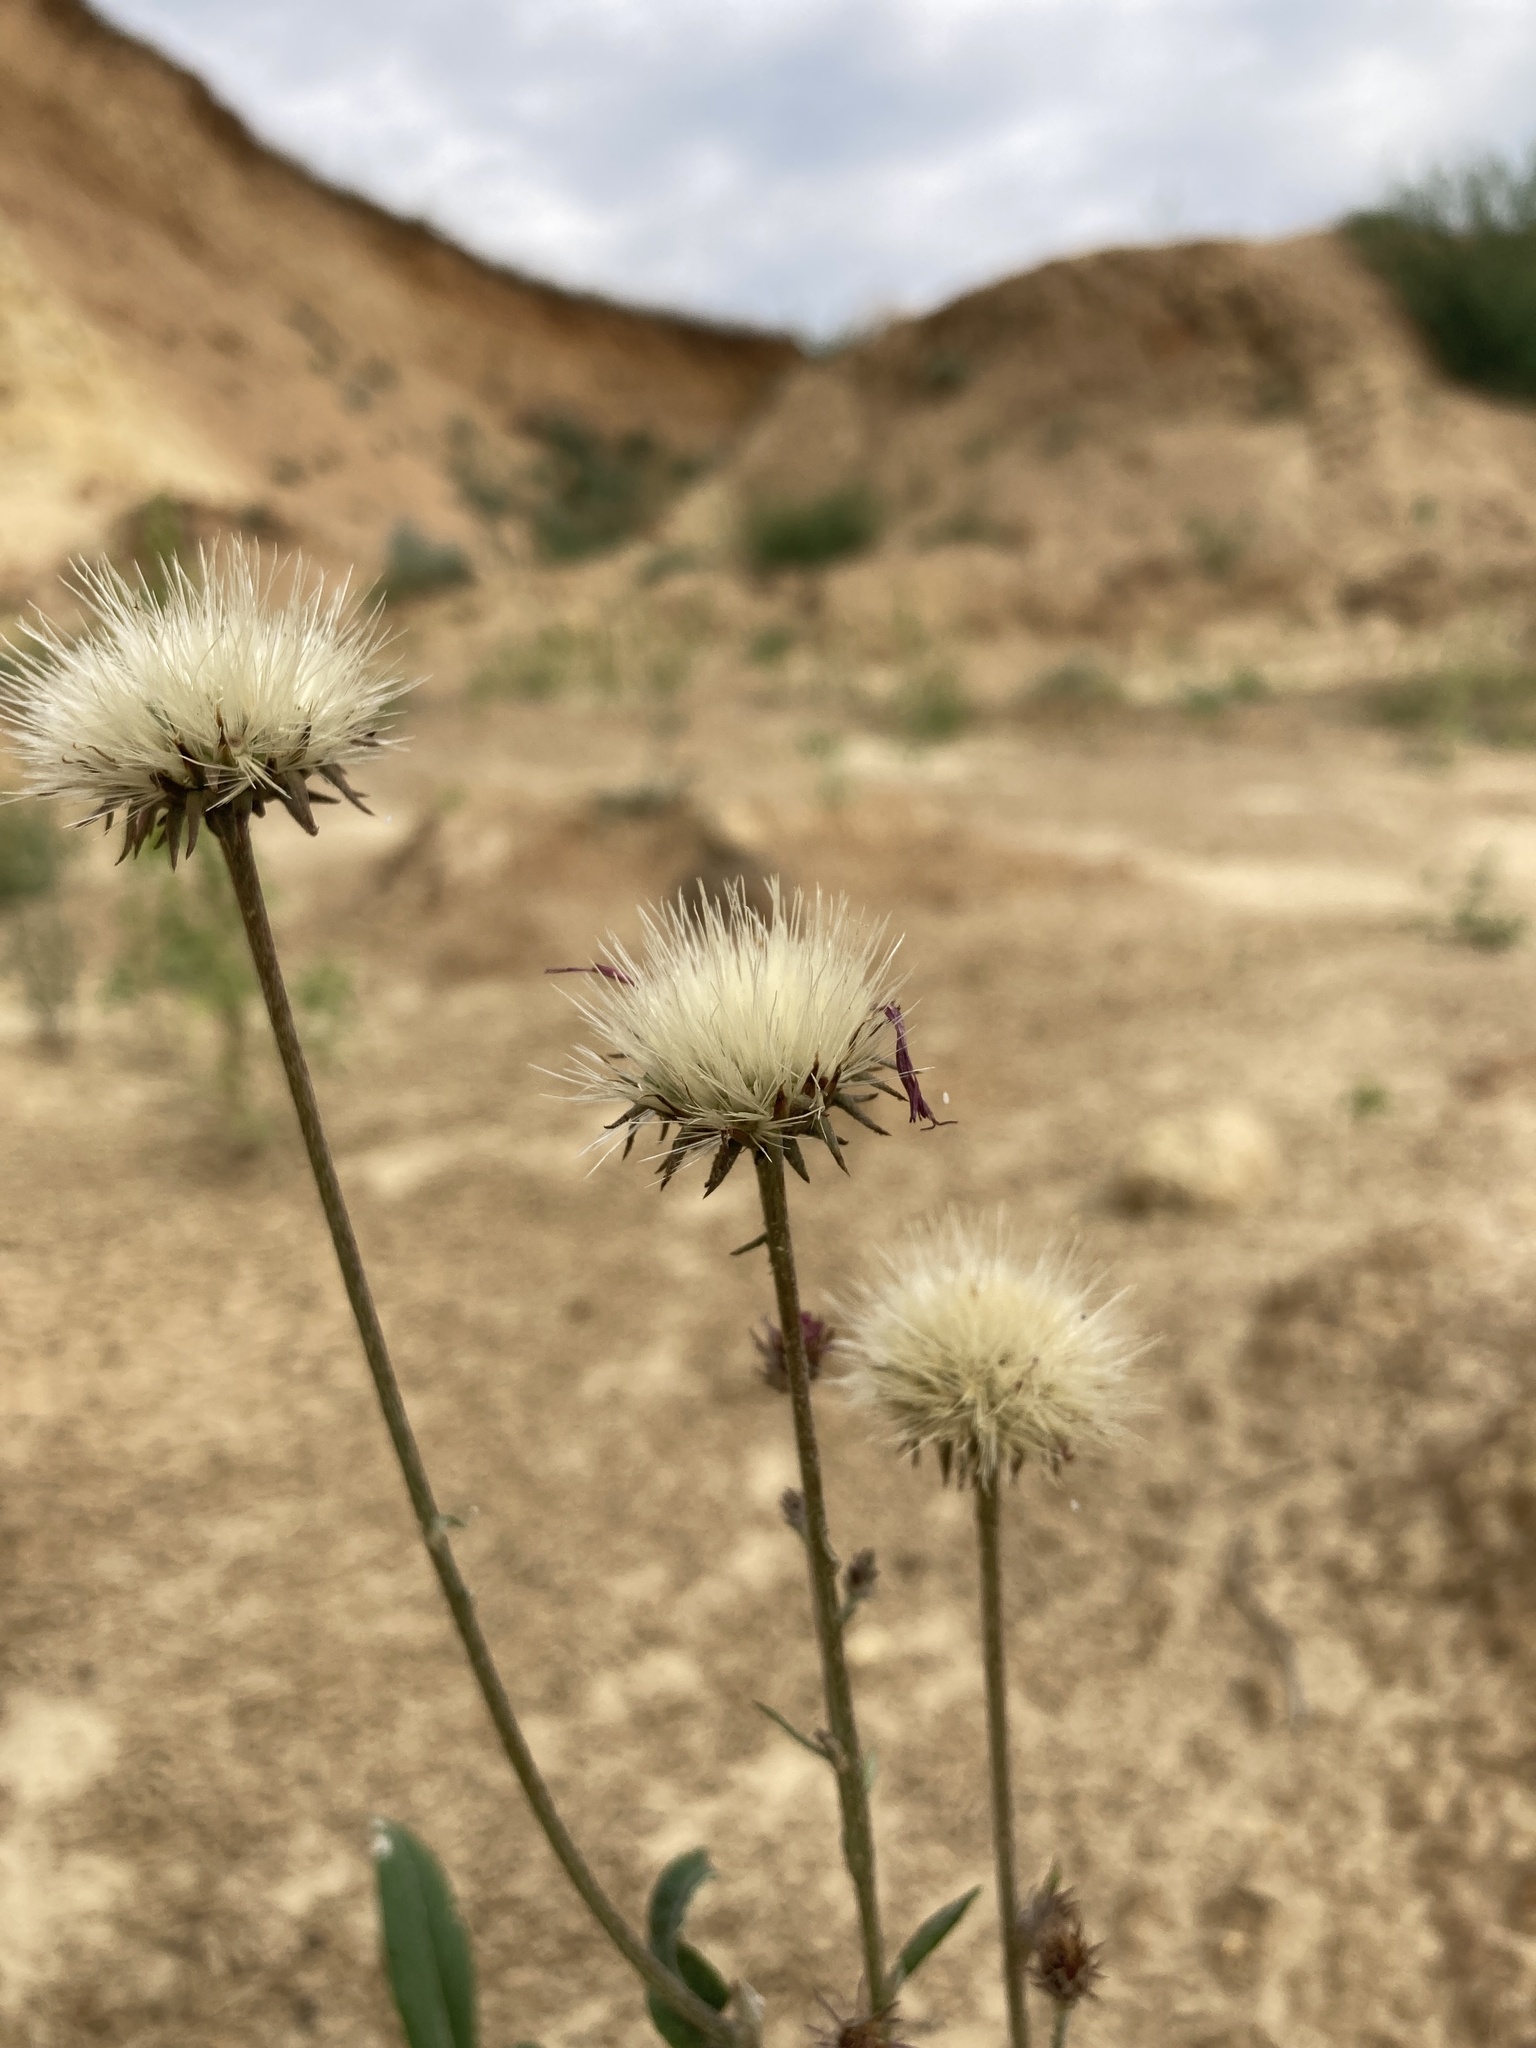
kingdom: Plantae
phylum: Tracheophyta
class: Magnoliopsida
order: Asterales
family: Asteraceae
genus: Jurinea
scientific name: Jurinea cyanoides
